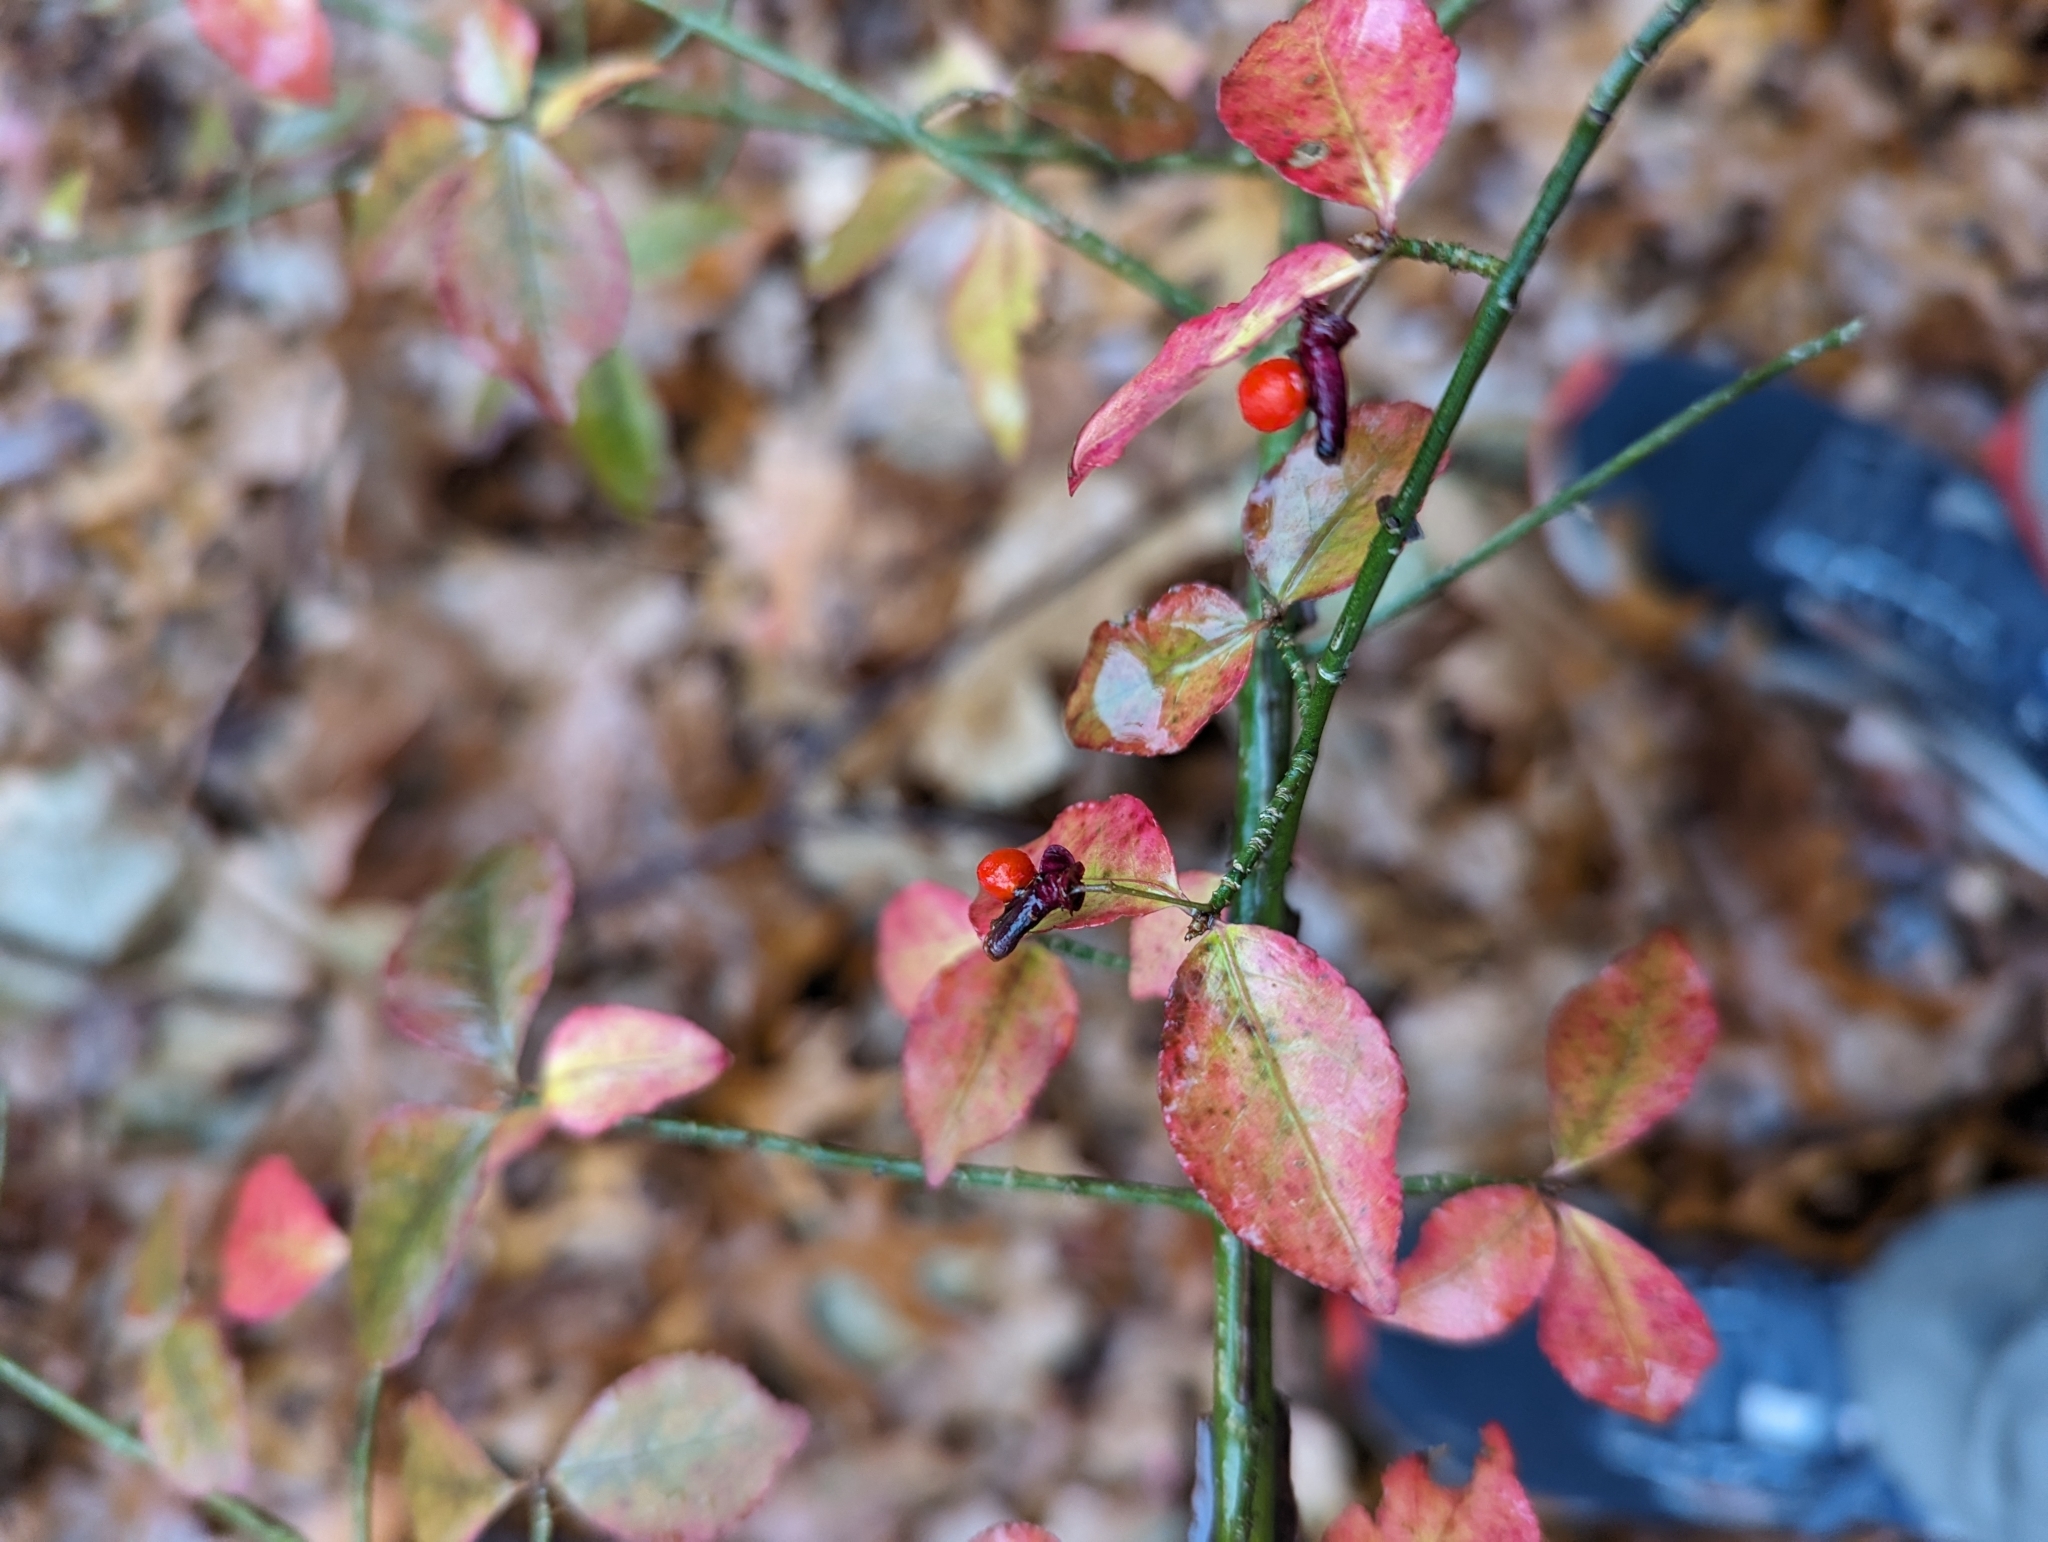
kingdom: Plantae
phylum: Tracheophyta
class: Magnoliopsida
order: Celastrales
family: Celastraceae
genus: Euonymus
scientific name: Euonymus alatus
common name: Winged euonymus
